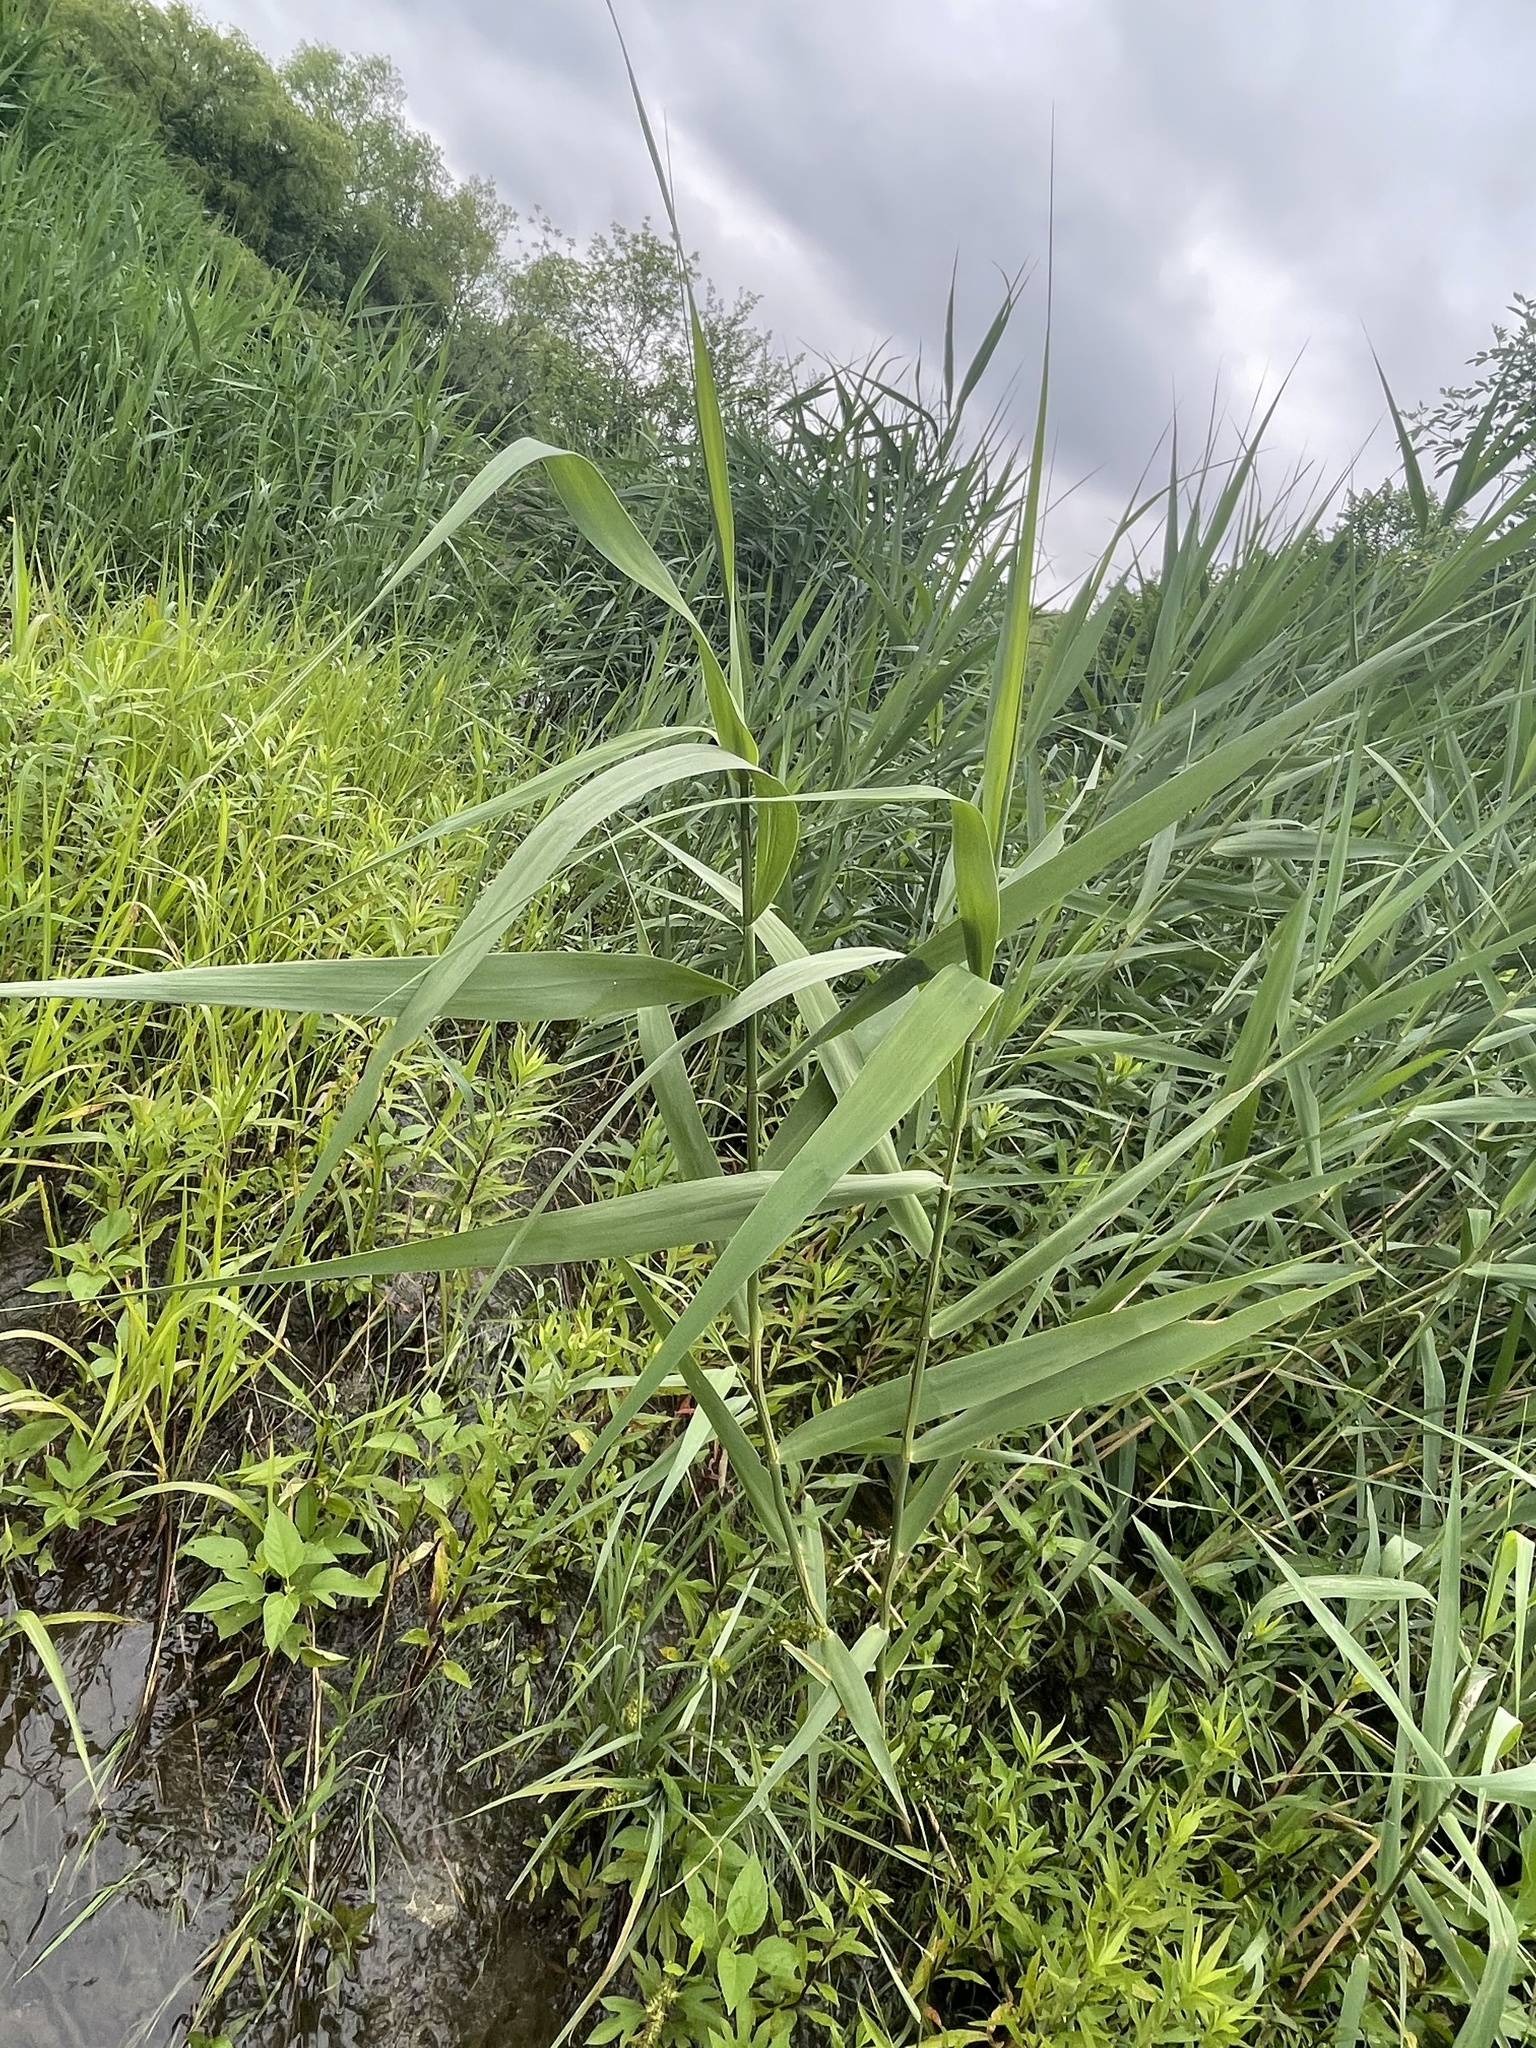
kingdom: Plantae
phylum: Tracheophyta
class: Liliopsida
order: Poales
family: Poaceae
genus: Phragmites
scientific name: Phragmites australis
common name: Common reed
